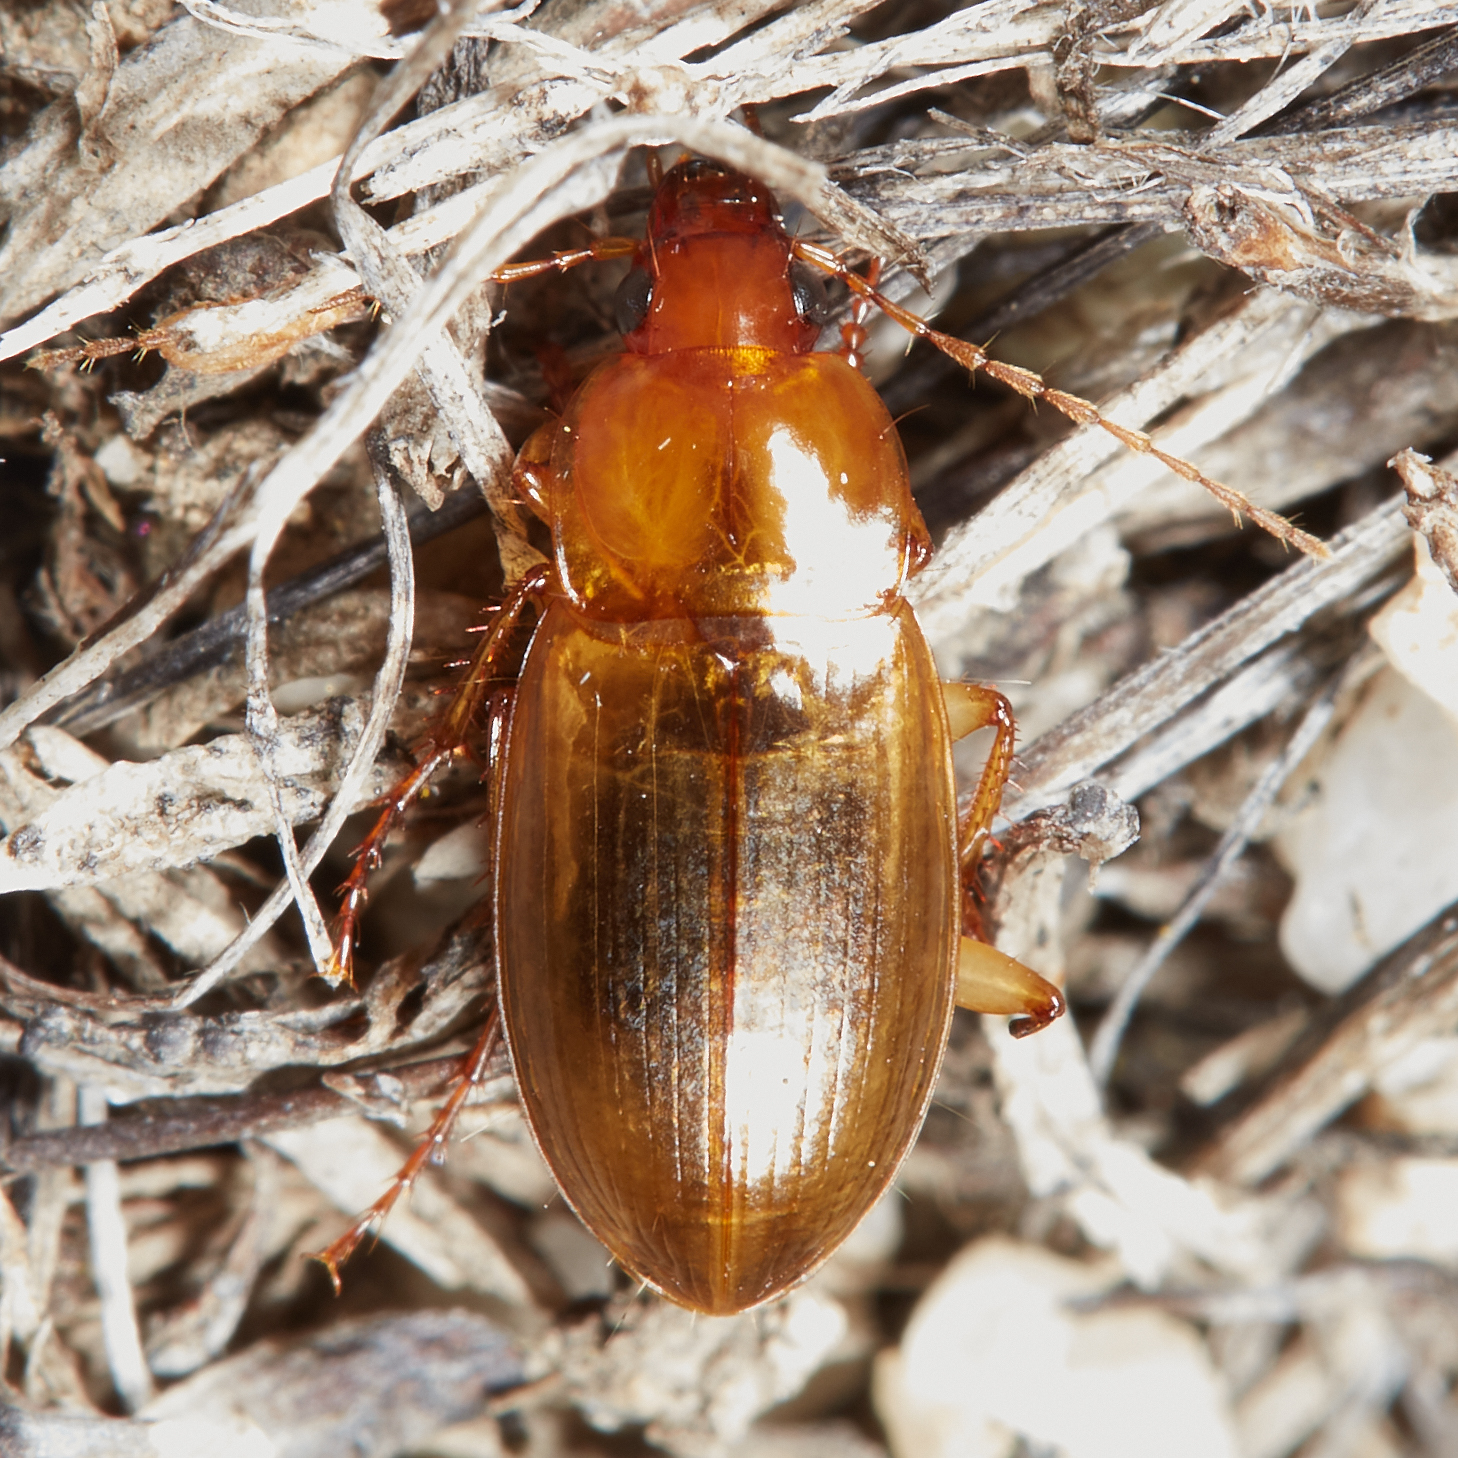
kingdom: Animalia
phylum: Arthropoda
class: Insecta
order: Coleoptera
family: Carabidae
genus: Calathus
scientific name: Calathus ruficollis
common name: Red-collared harp ground beetle
